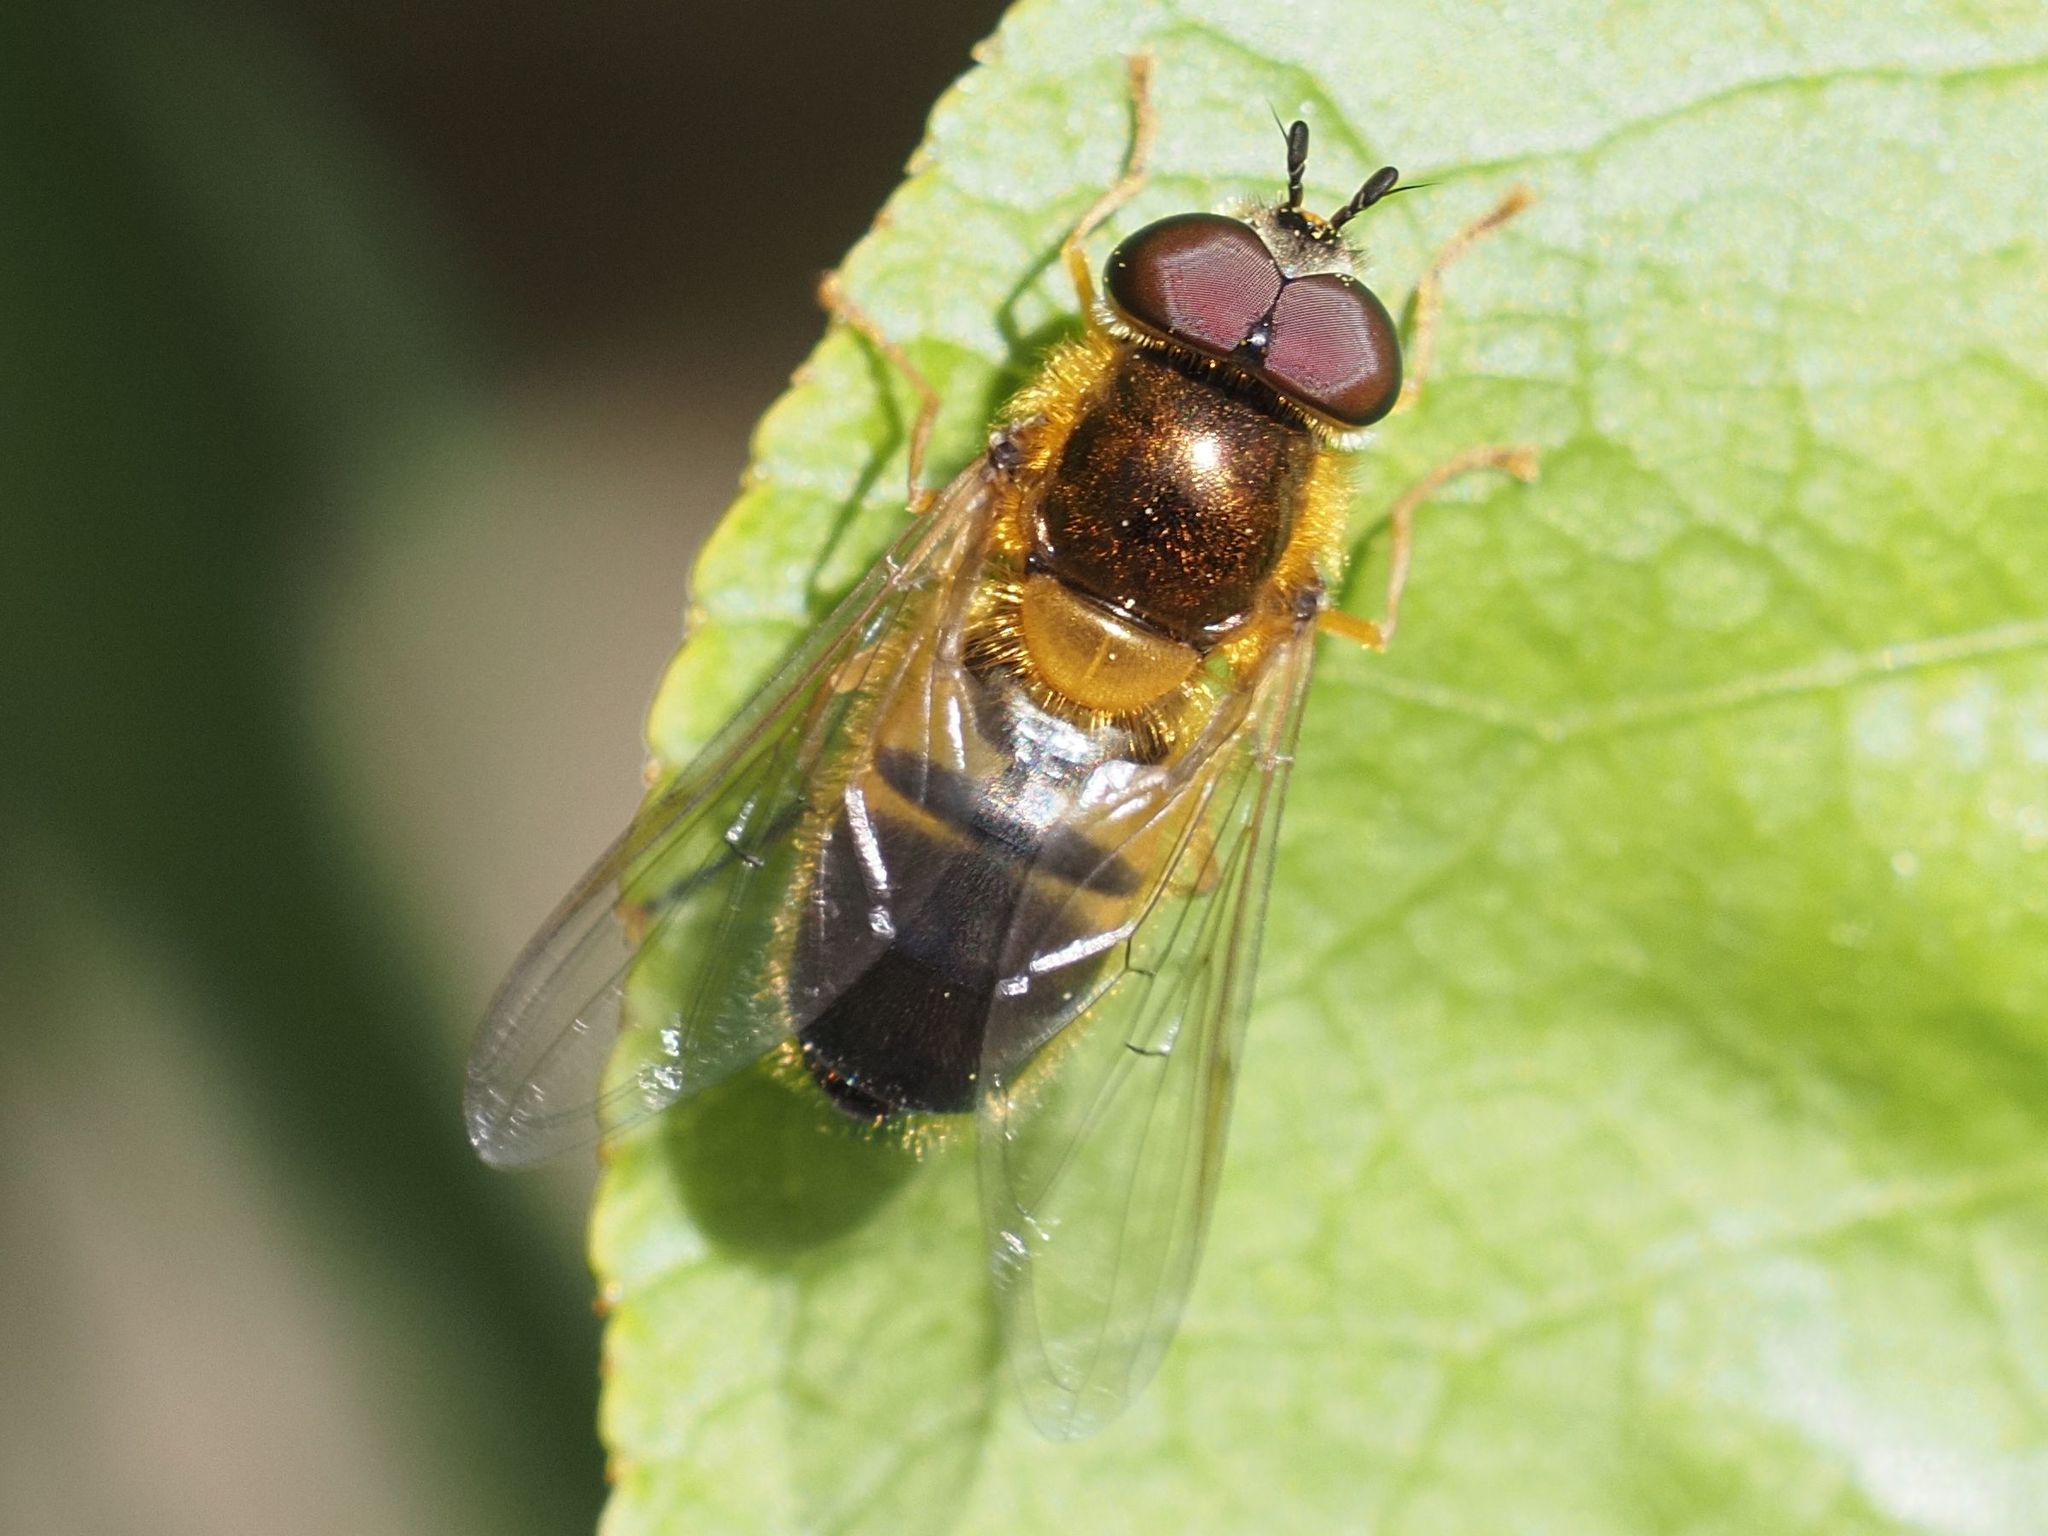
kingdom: Animalia
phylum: Arthropoda
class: Insecta
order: Diptera
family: Syrphidae
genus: Epistrophe
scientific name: Epistrophe eligans
